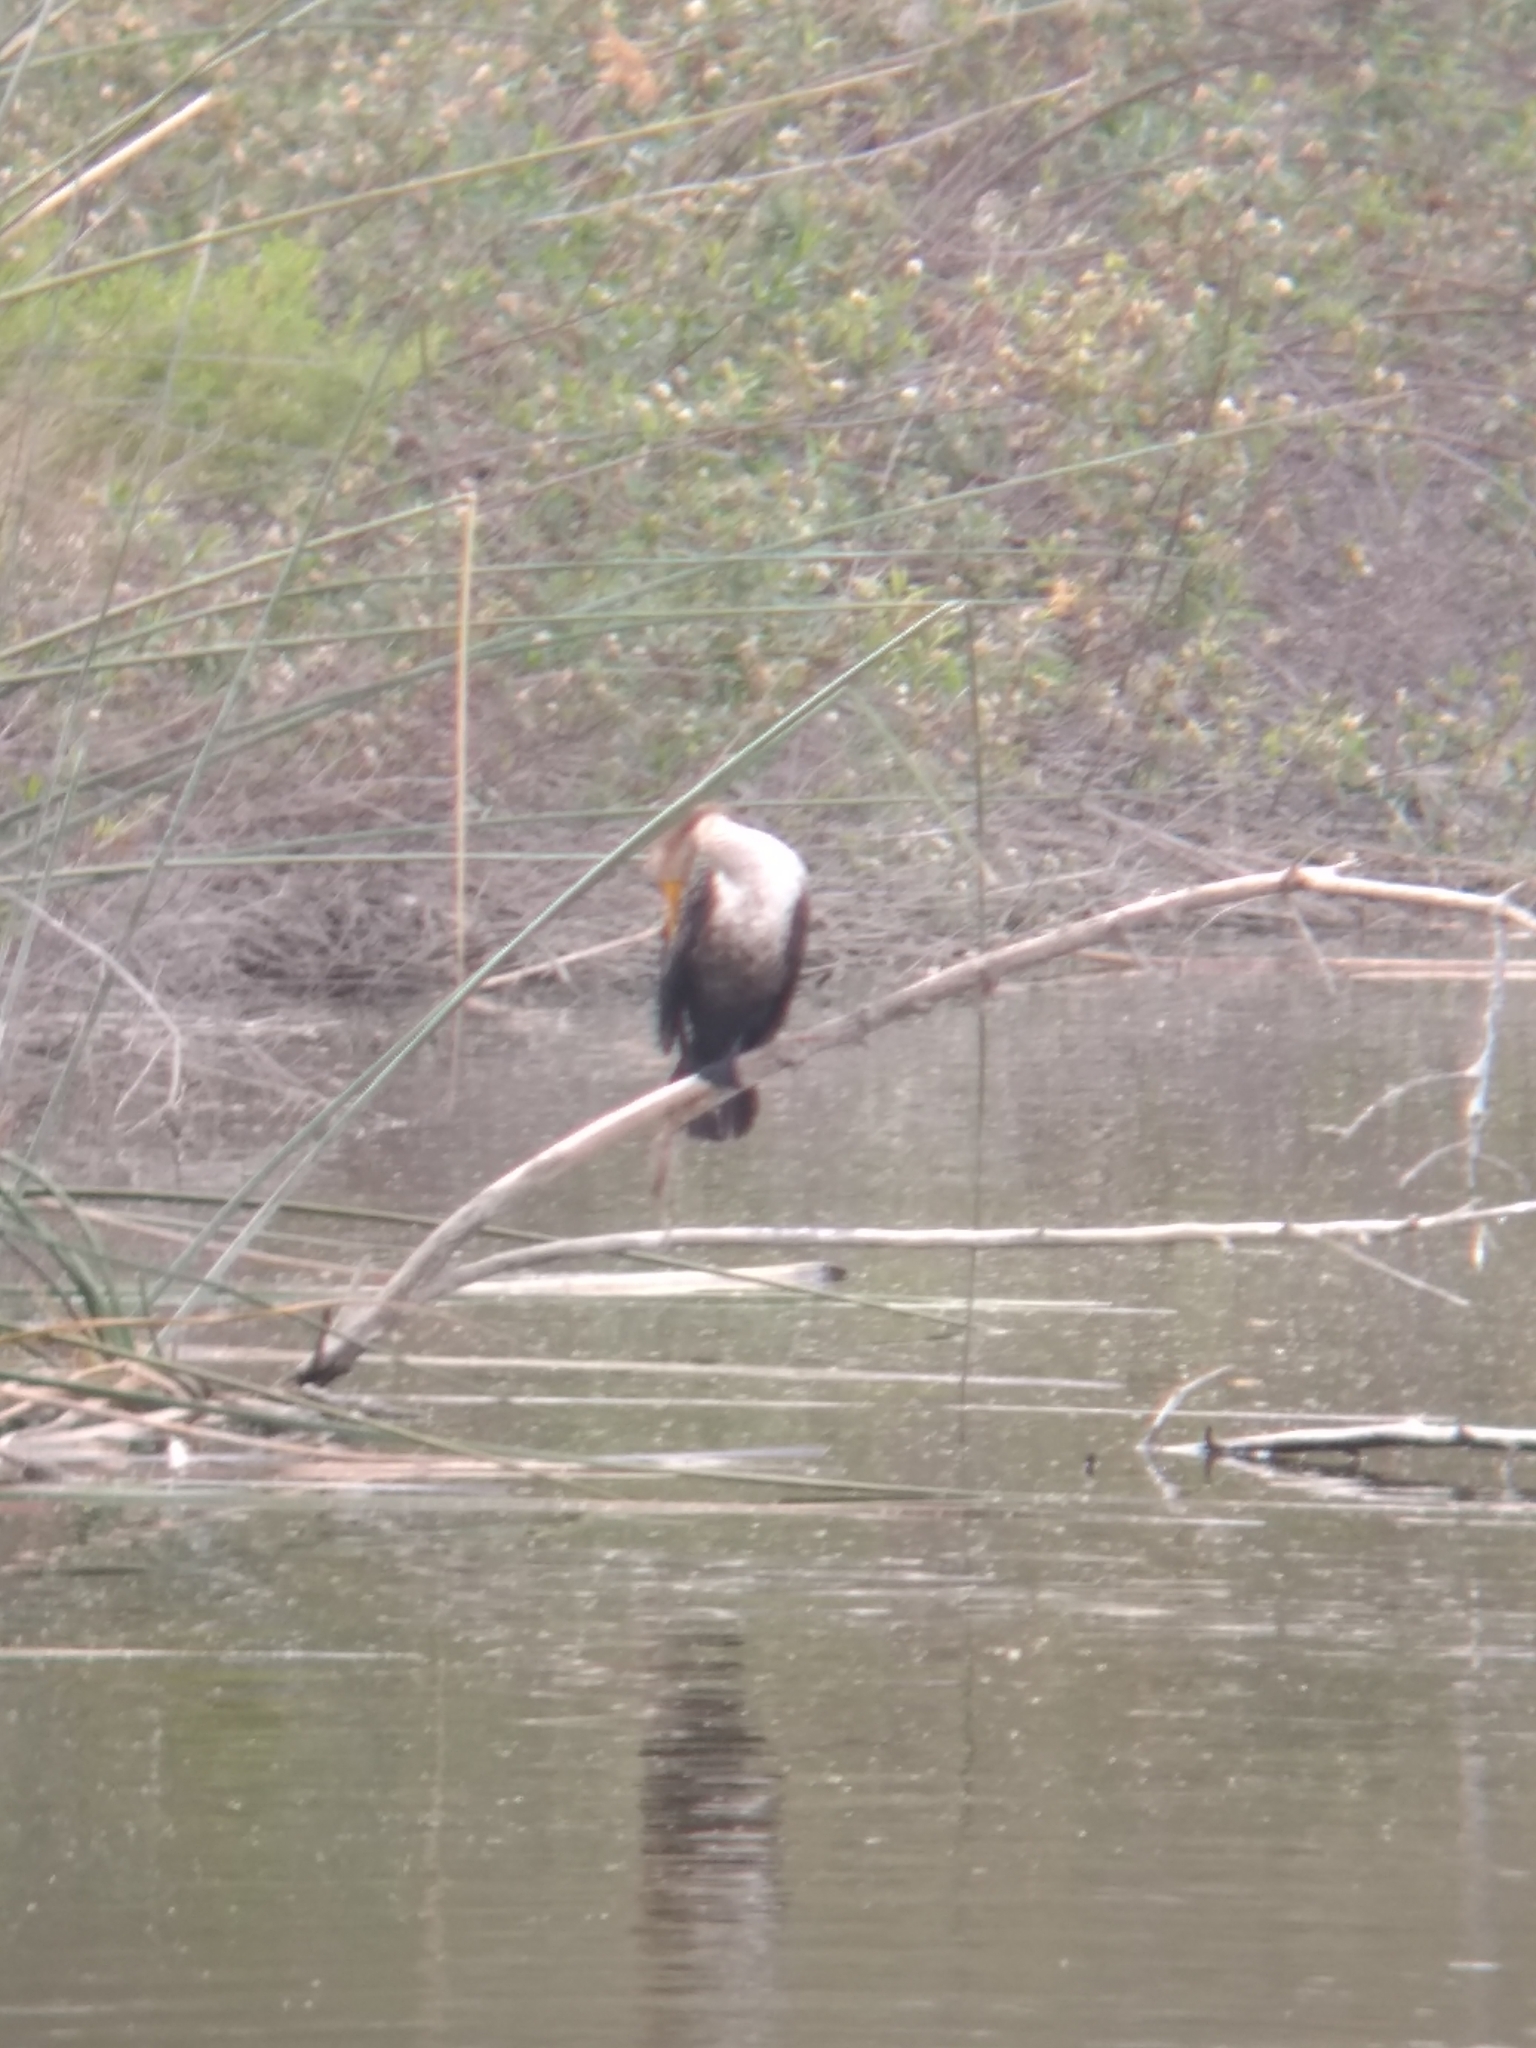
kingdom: Animalia
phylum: Chordata
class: Aves
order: Suliformes
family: Phalacrocoracidae
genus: Phalacrocorax
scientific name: Phalacrocorax auritus
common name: Double-crested cormorant
